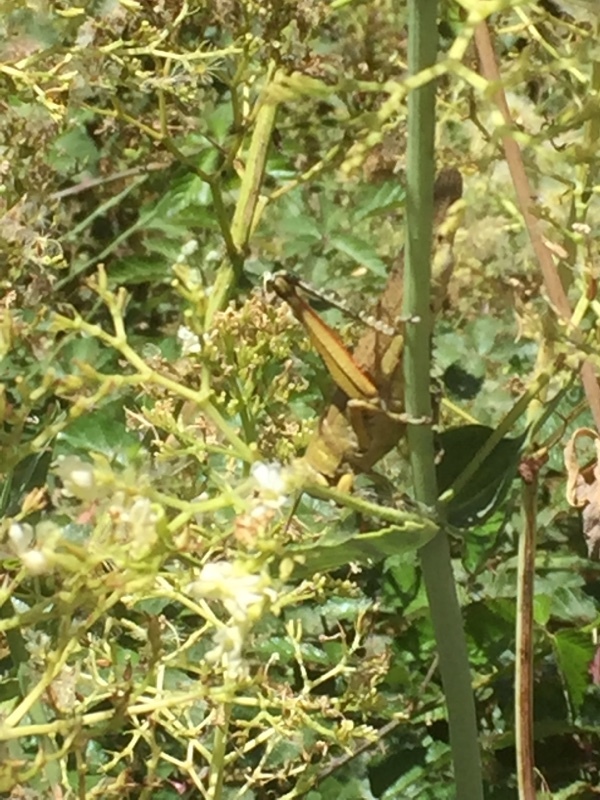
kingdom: Animalia
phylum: Arthropoda
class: Insecta
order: Orthoptera
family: Acrididae
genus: Anacridium
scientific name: Anacridium aegyptium
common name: Egyptian grasshopper
